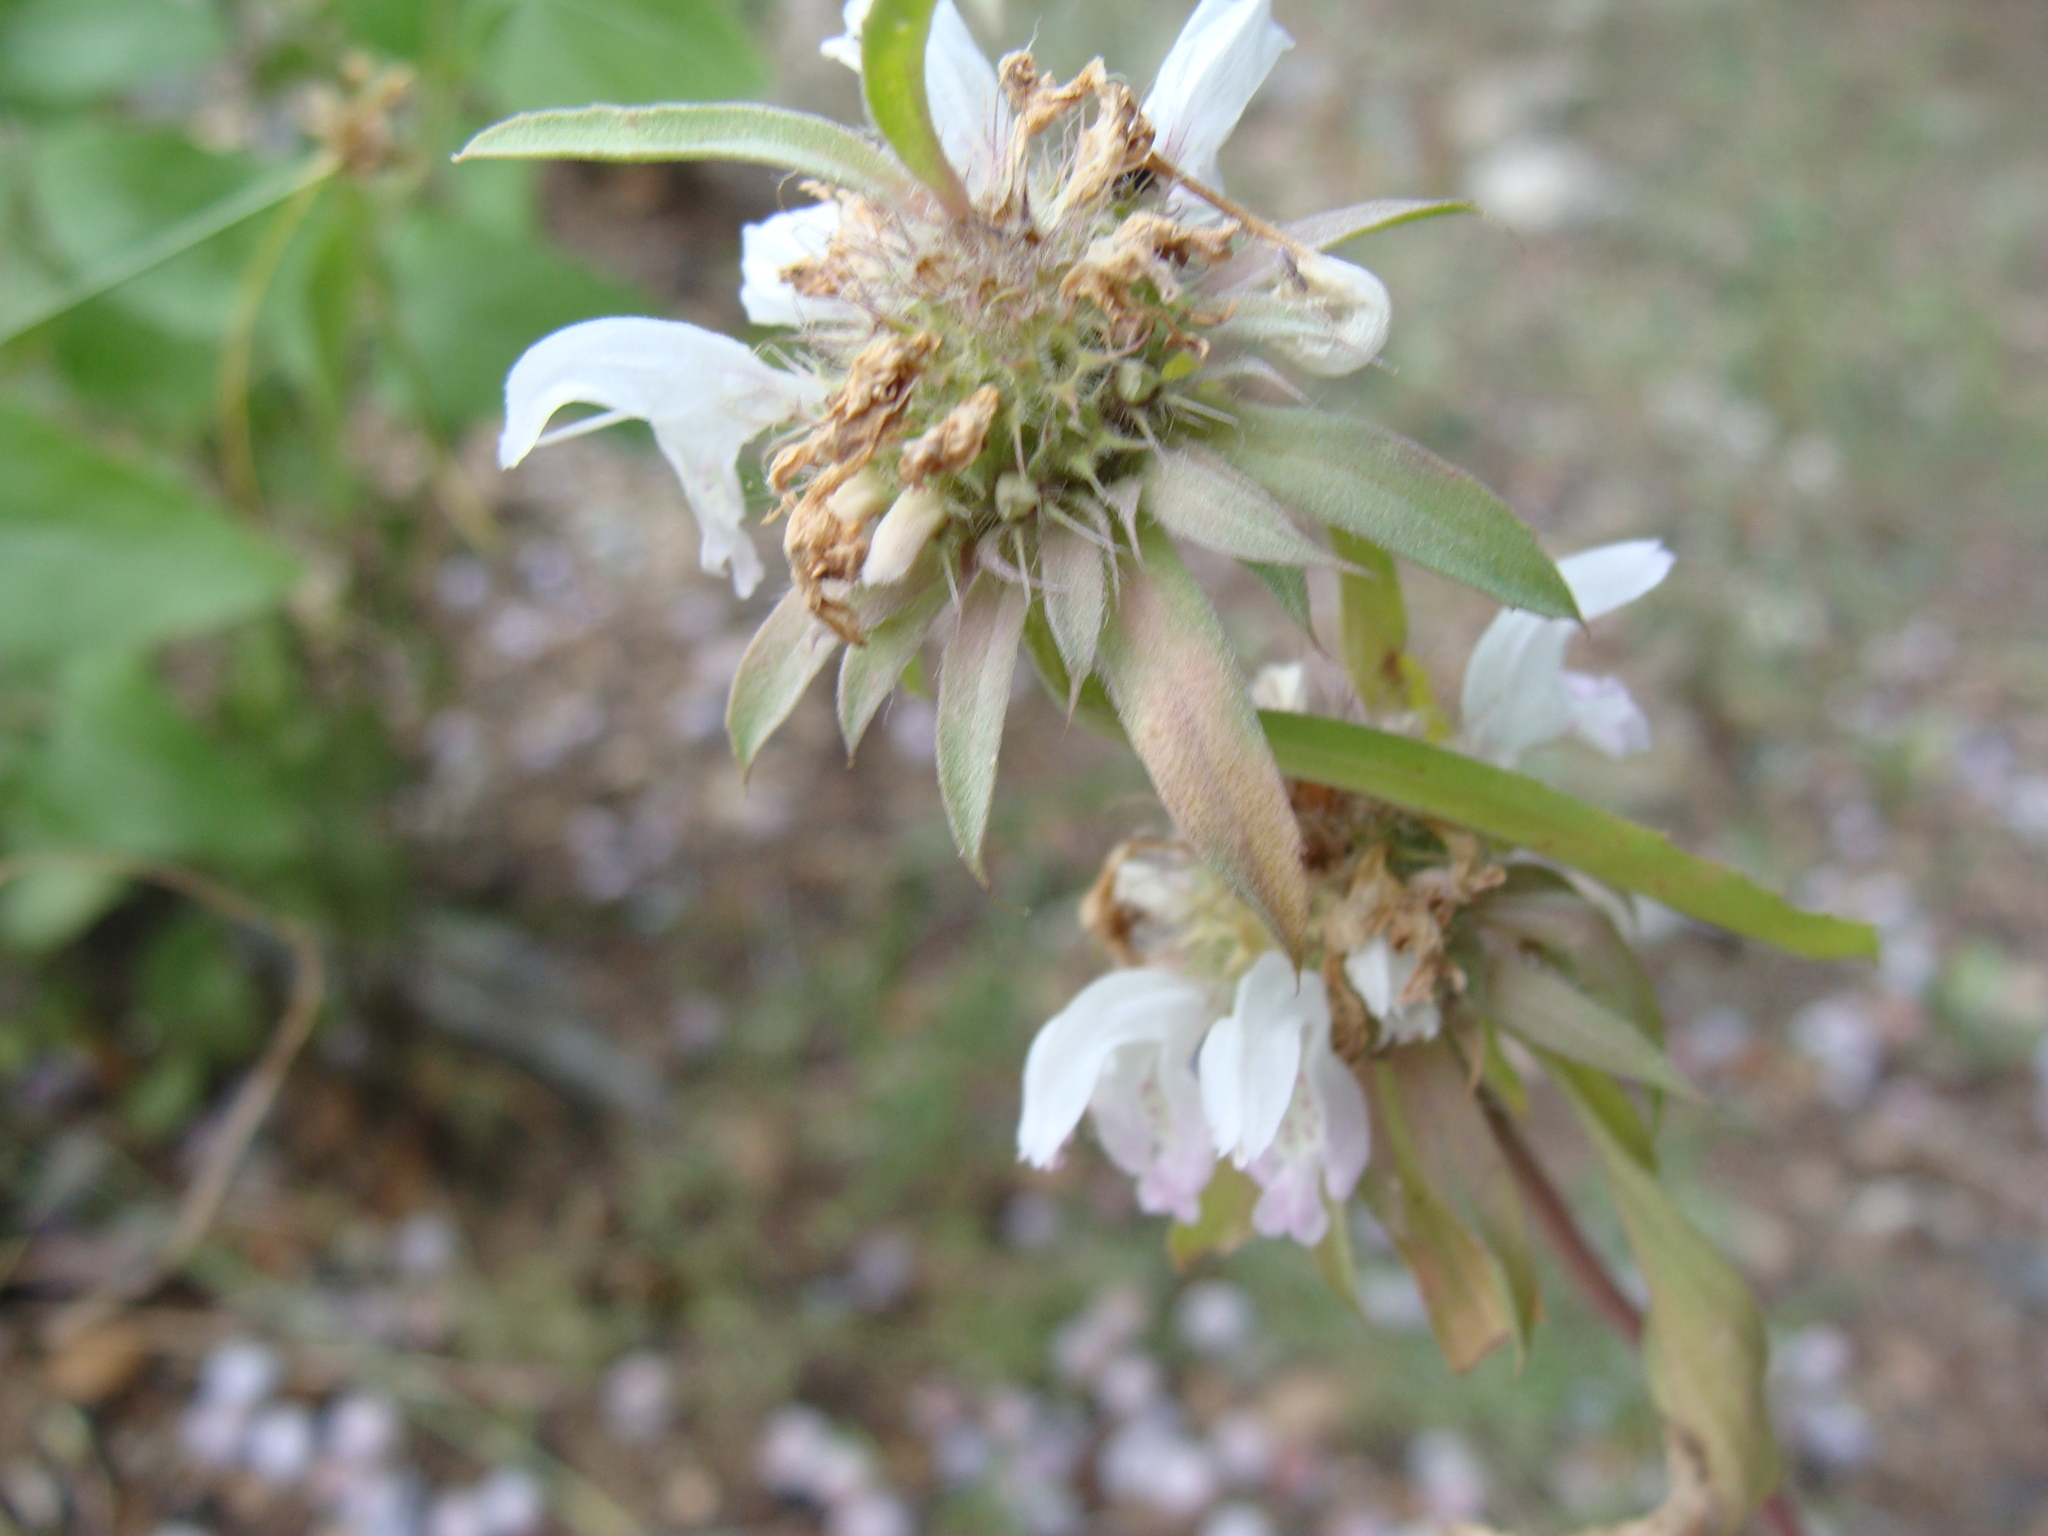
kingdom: Plantae
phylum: Tracheophyta
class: Magnoliopsida
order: Lamiales
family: Lamiaceae
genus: Monarda
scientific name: Monarda citriodora
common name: Lemon beebalm
